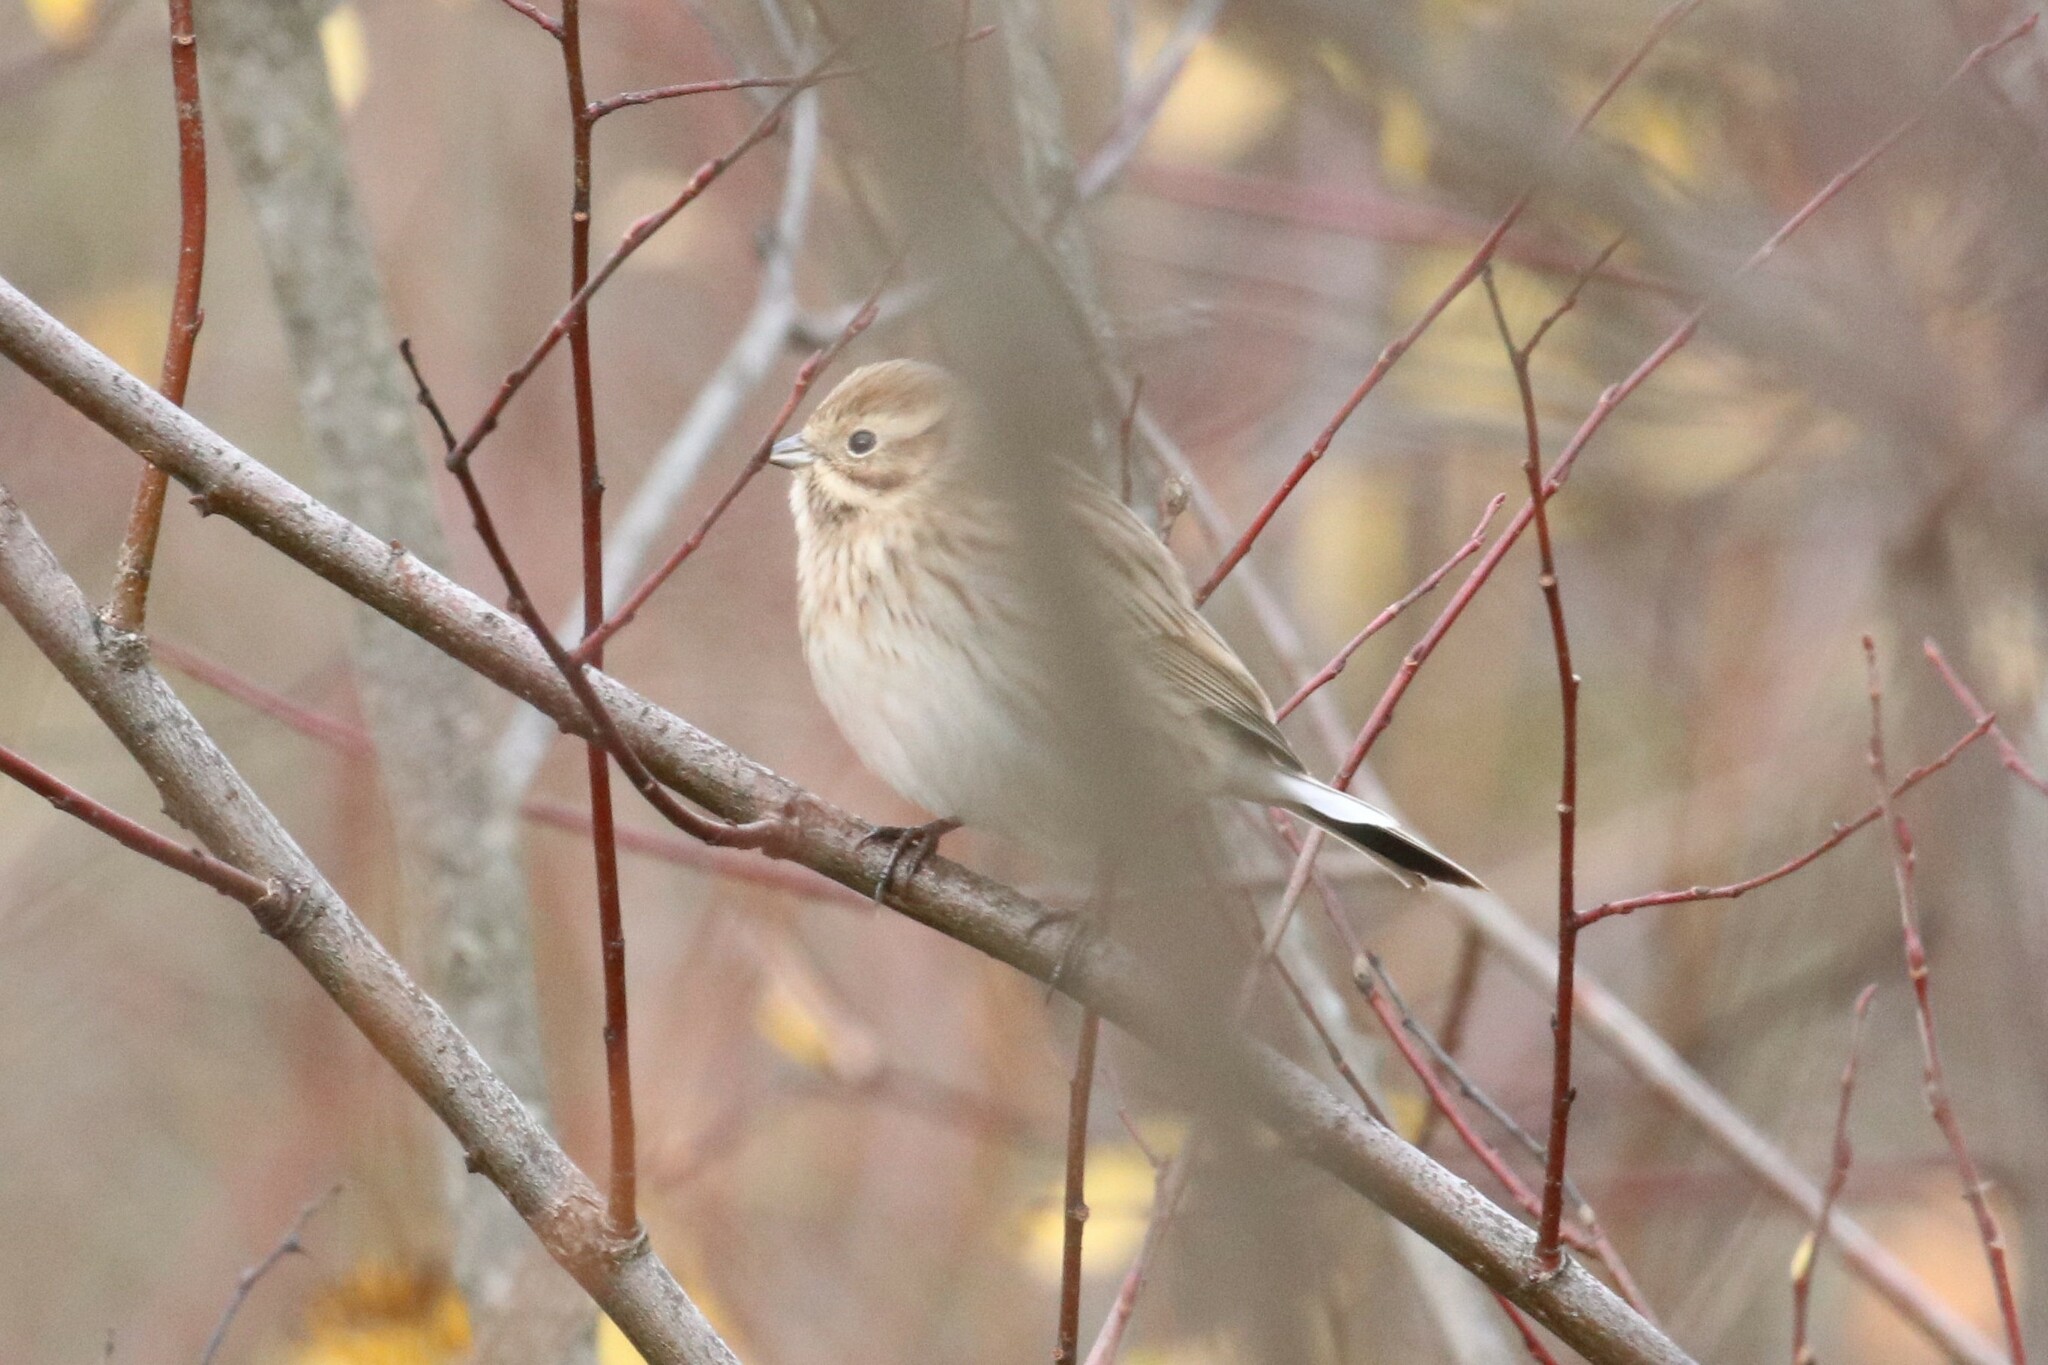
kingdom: Animalia
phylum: Chordata
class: Aves
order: Passeriformes
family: Emberizidae
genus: Emberiza
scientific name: Emberiza schoeniclus
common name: Reed bunting
